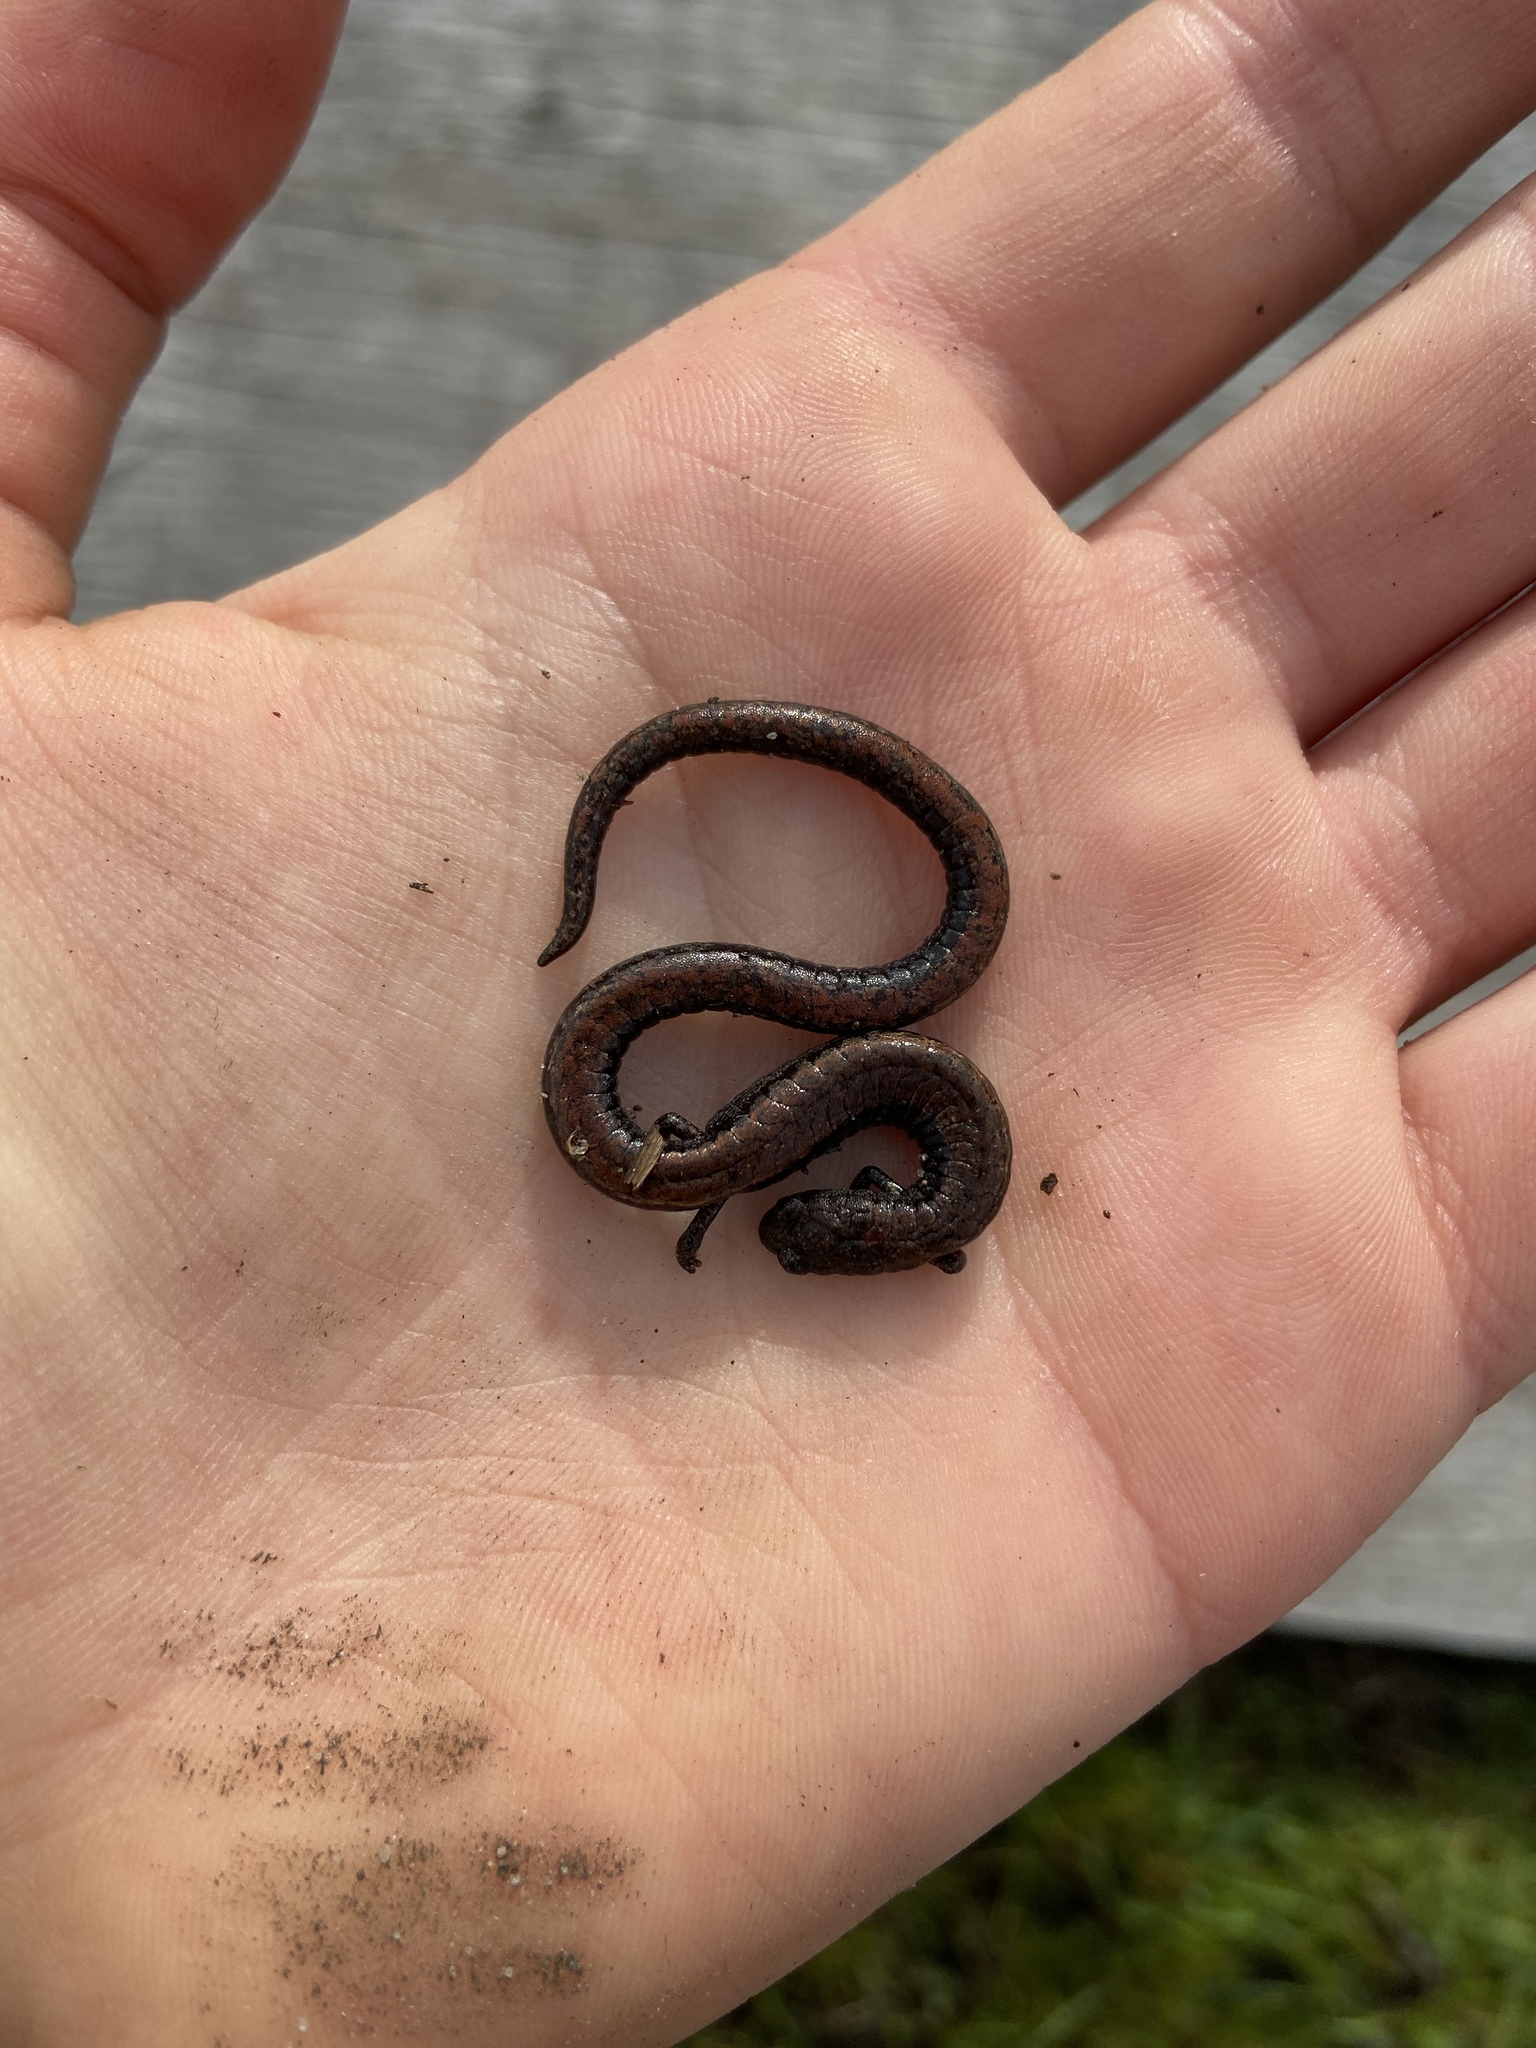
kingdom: Animalia
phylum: Chordata
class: Amphibia
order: Caudata
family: Plethodontidae
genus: Batrachoseps
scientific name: Batrachoseps attenuatus
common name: California slender salamander
